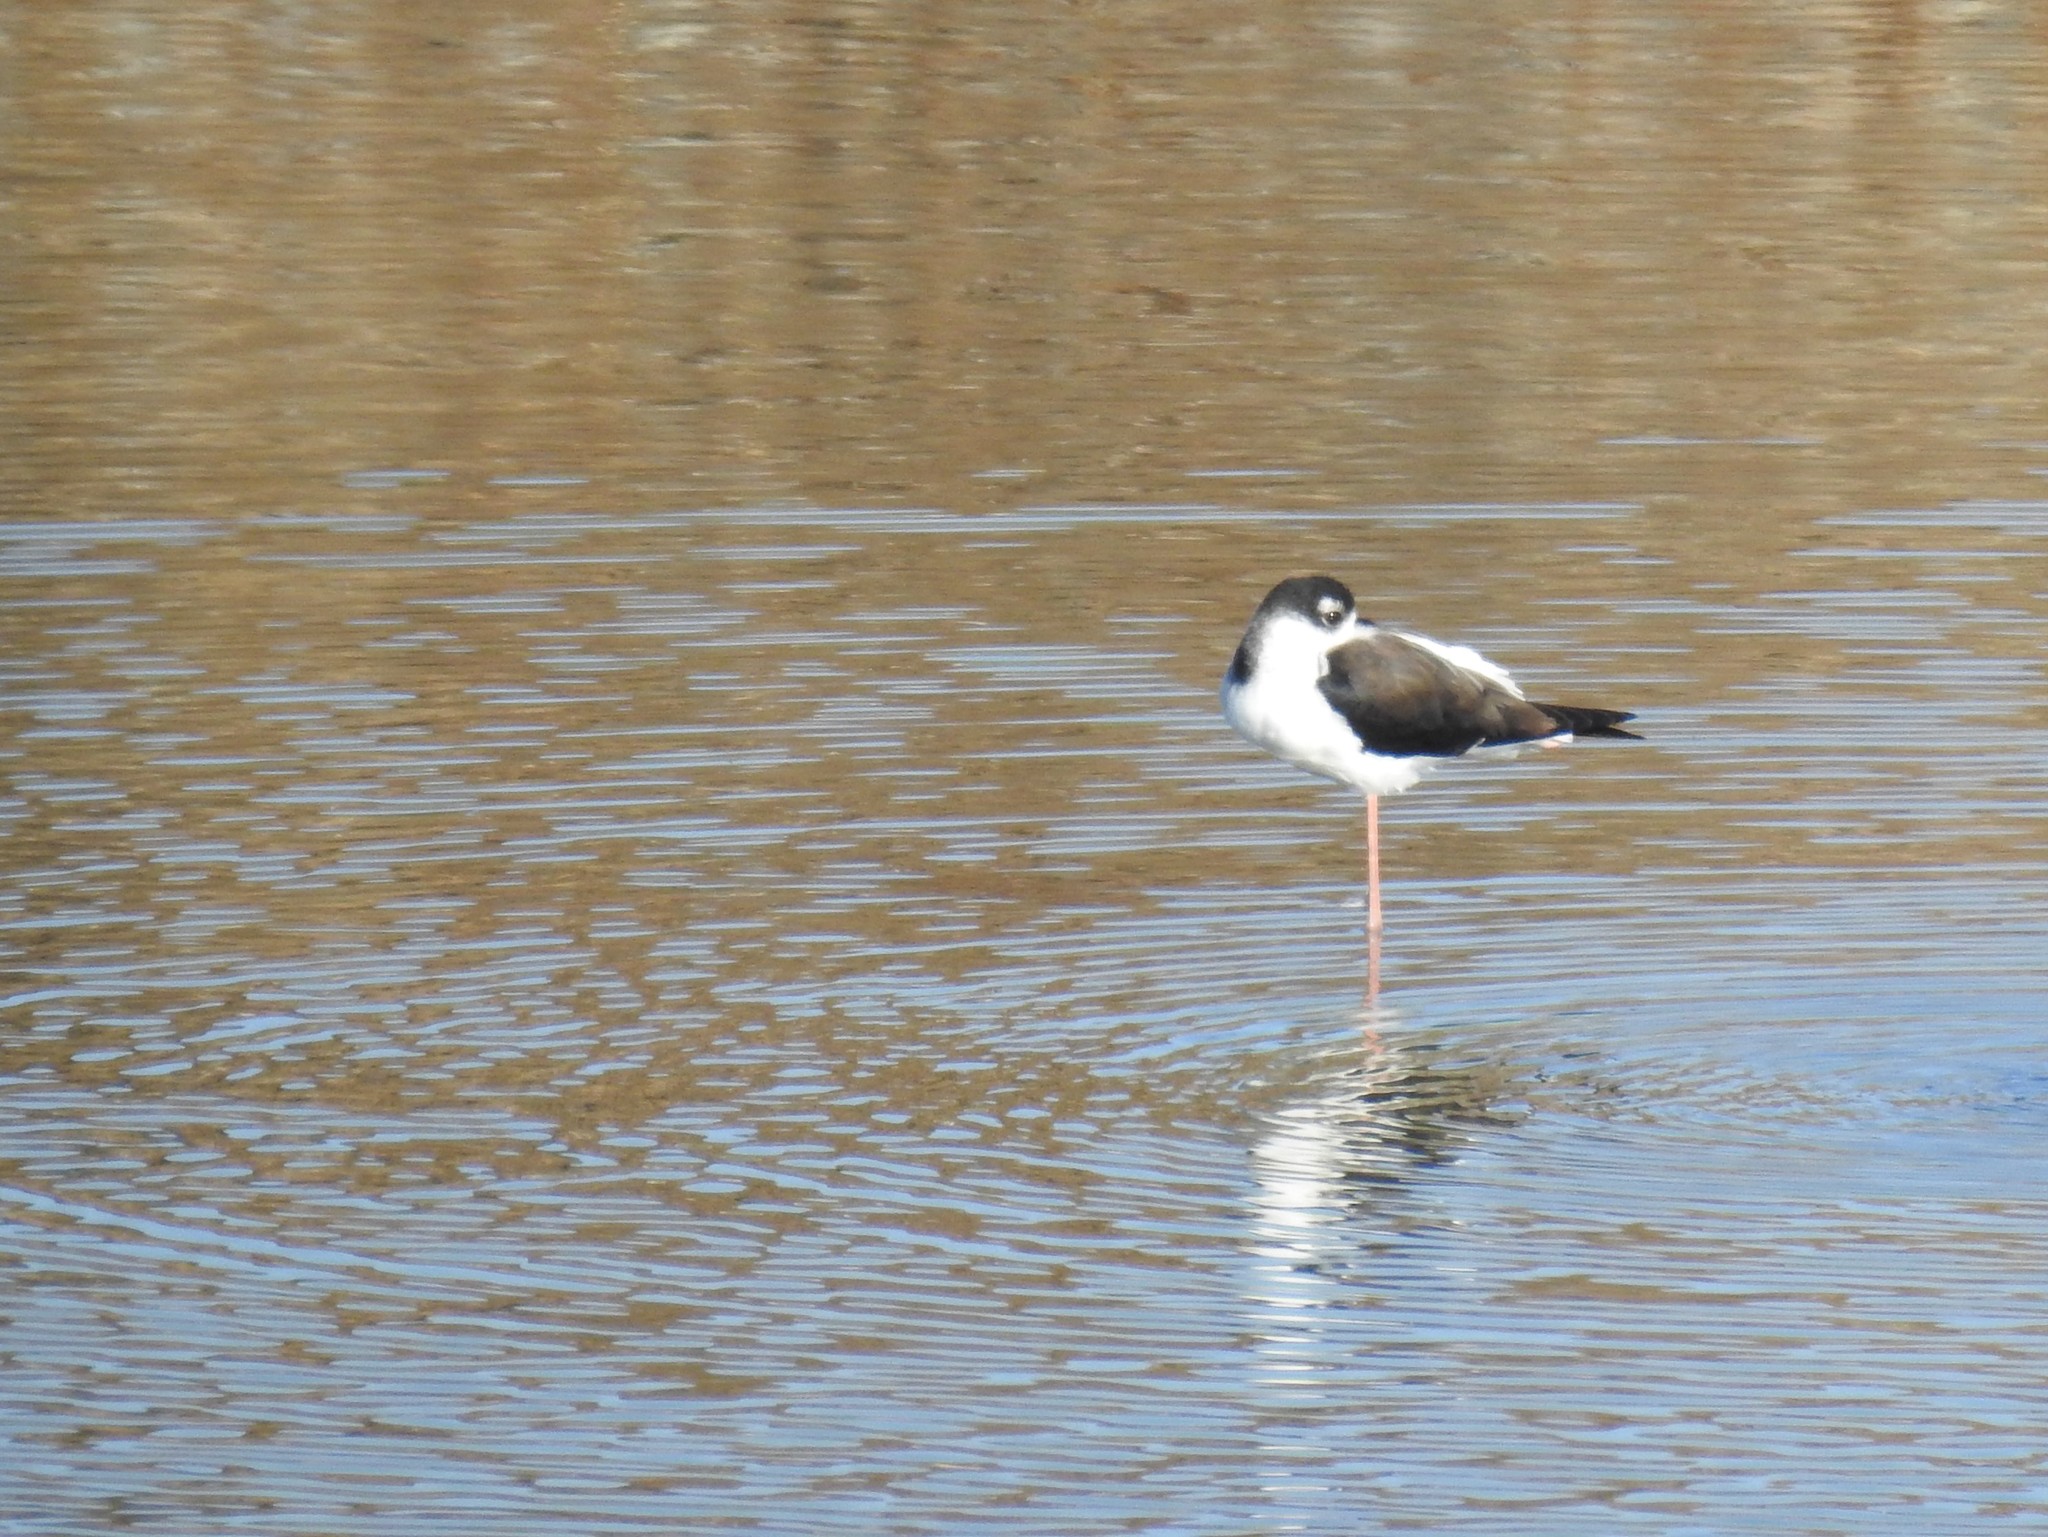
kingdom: Animalia
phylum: Chordata
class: Aves
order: Charadriiformes
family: Recurvirostridae
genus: Himantopus
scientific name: Himantopus mexicanus
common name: Black-necked stilt
